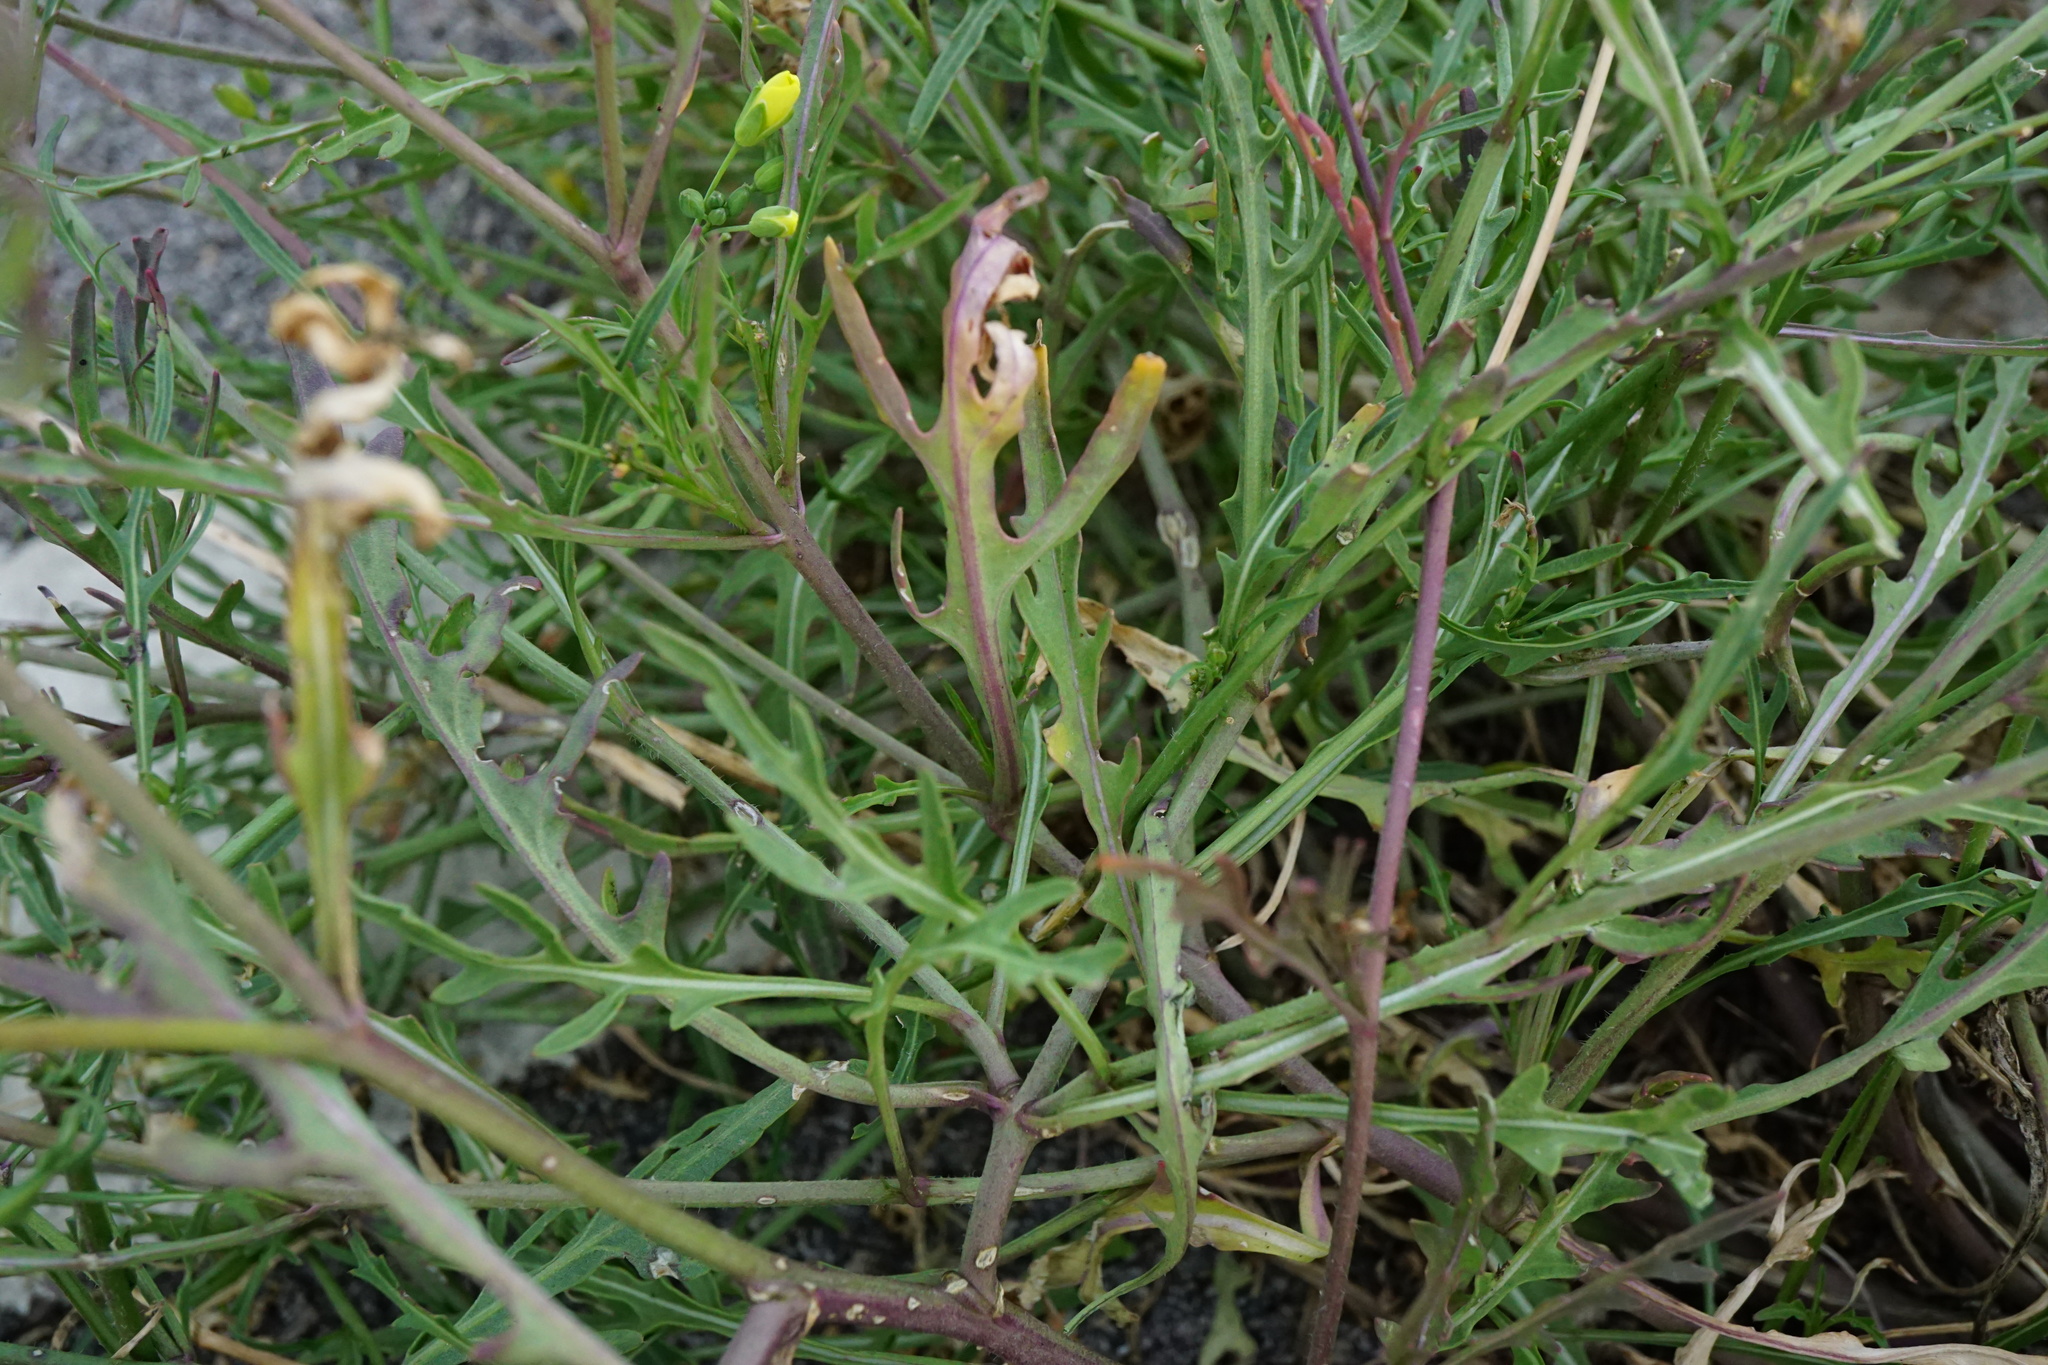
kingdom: Plantae
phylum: Tracheophyta
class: Magnoliopsida
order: Brassicales
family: Brassicaceae
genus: Diplotaxis
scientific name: Diplotaxis tenuifolia
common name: Perennial wall-rocket
